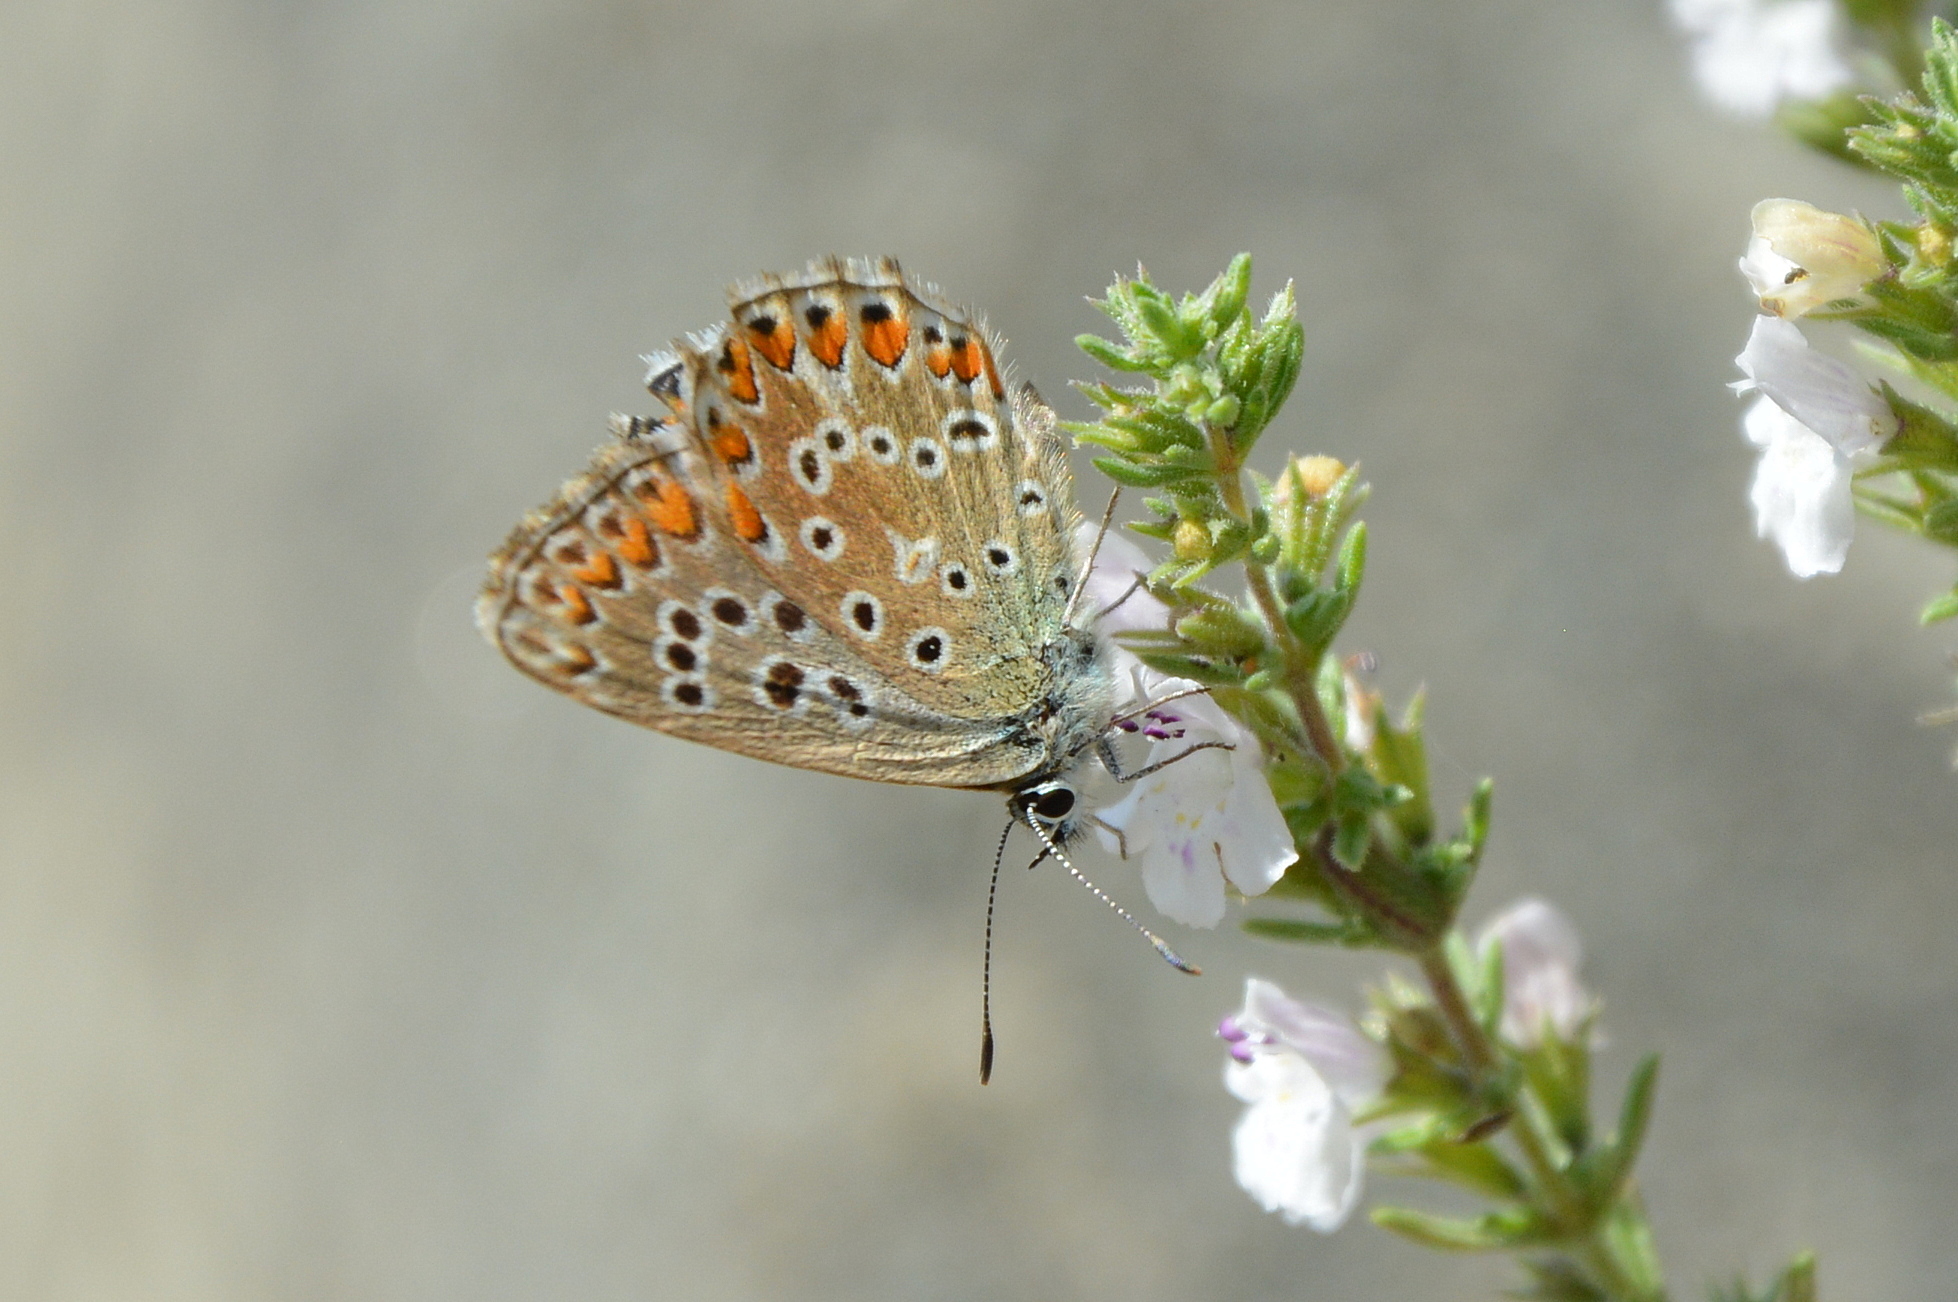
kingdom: Animalia
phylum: Arthropoda
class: Insecta
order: Lepidoptera
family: Lycaenidae
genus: Lysandra
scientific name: Lysandra bellargus
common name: Adonis blue
